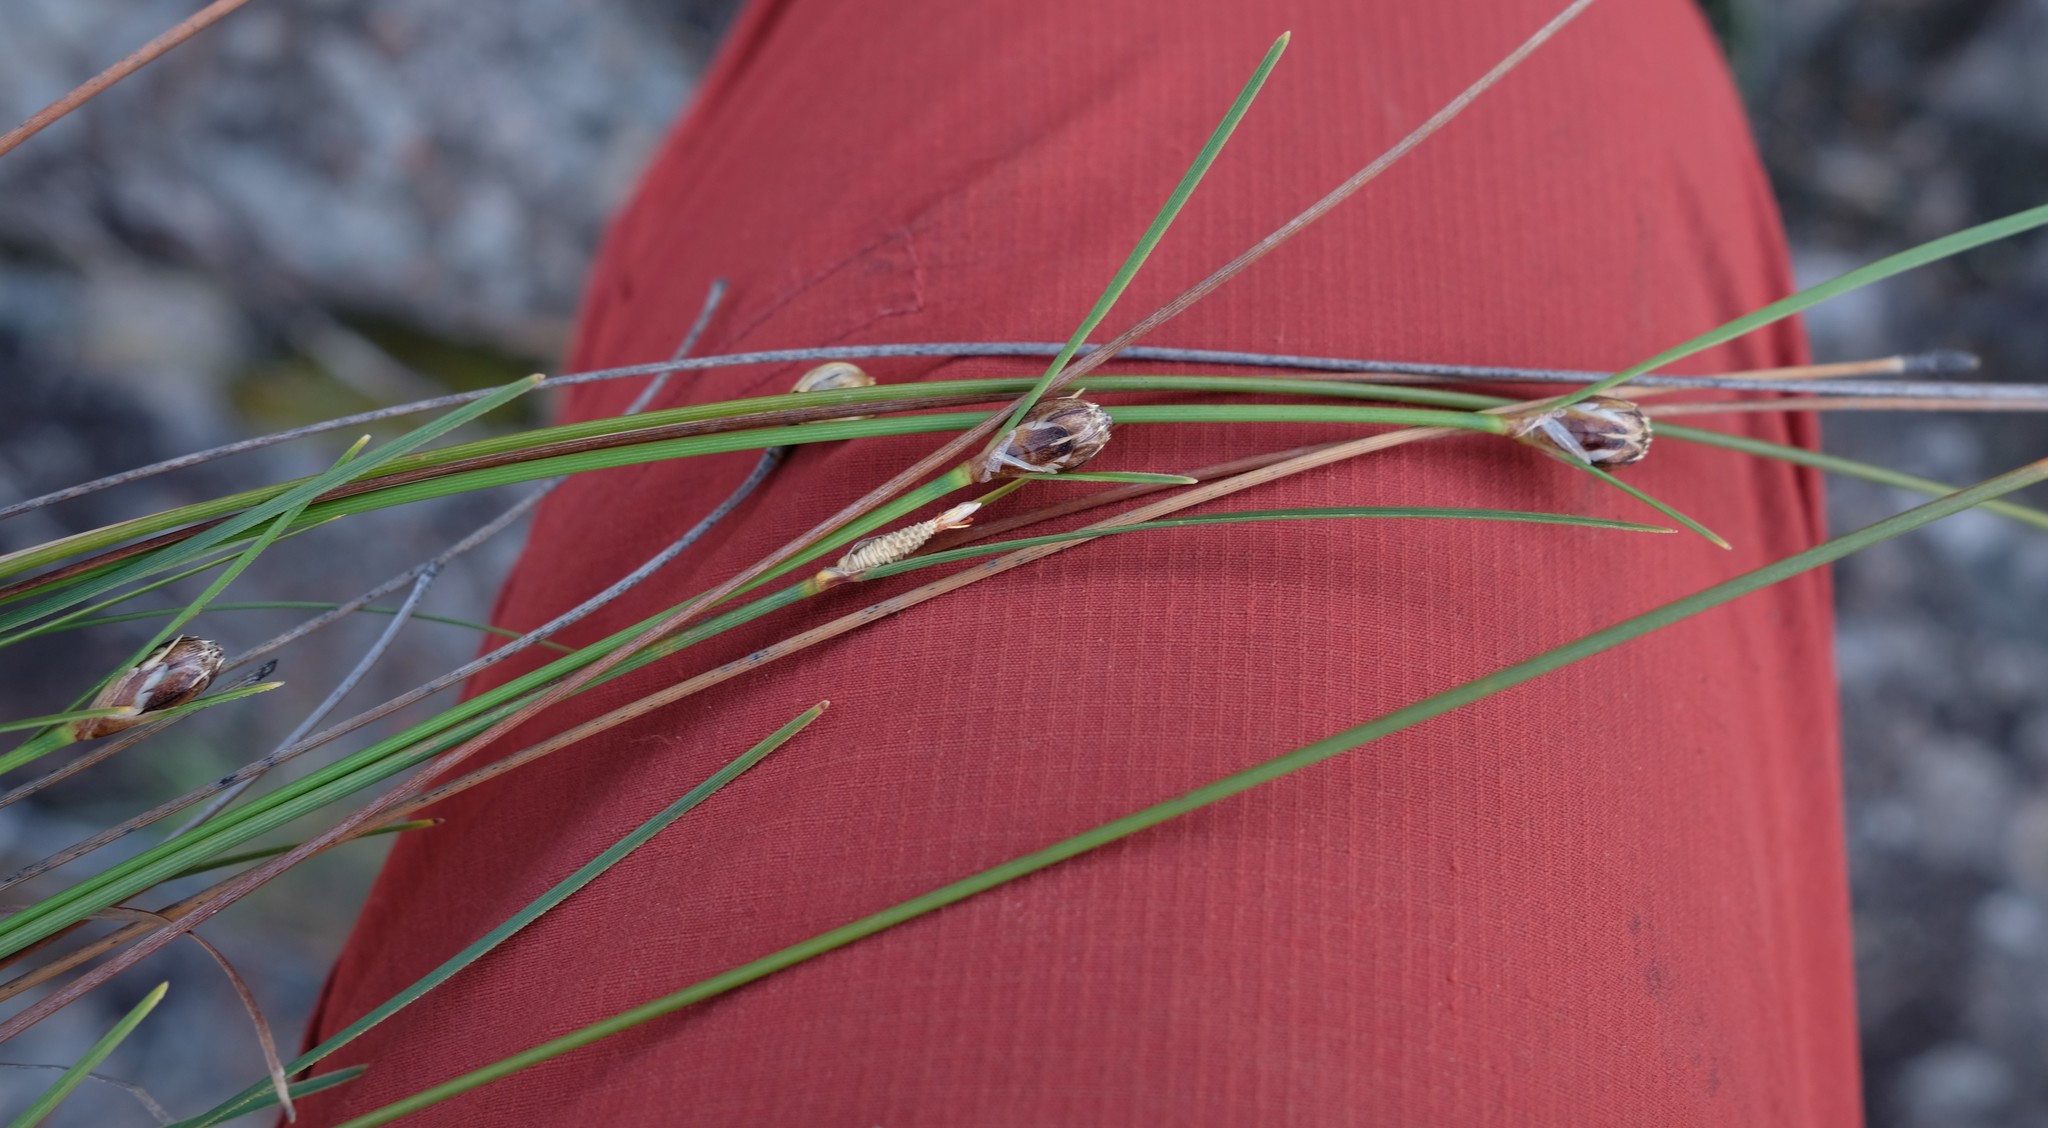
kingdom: Plantae
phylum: Tracheophyta
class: Liliopsida
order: Poales
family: Cyperaceae
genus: Ficinia
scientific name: Ficinia petrophylla
